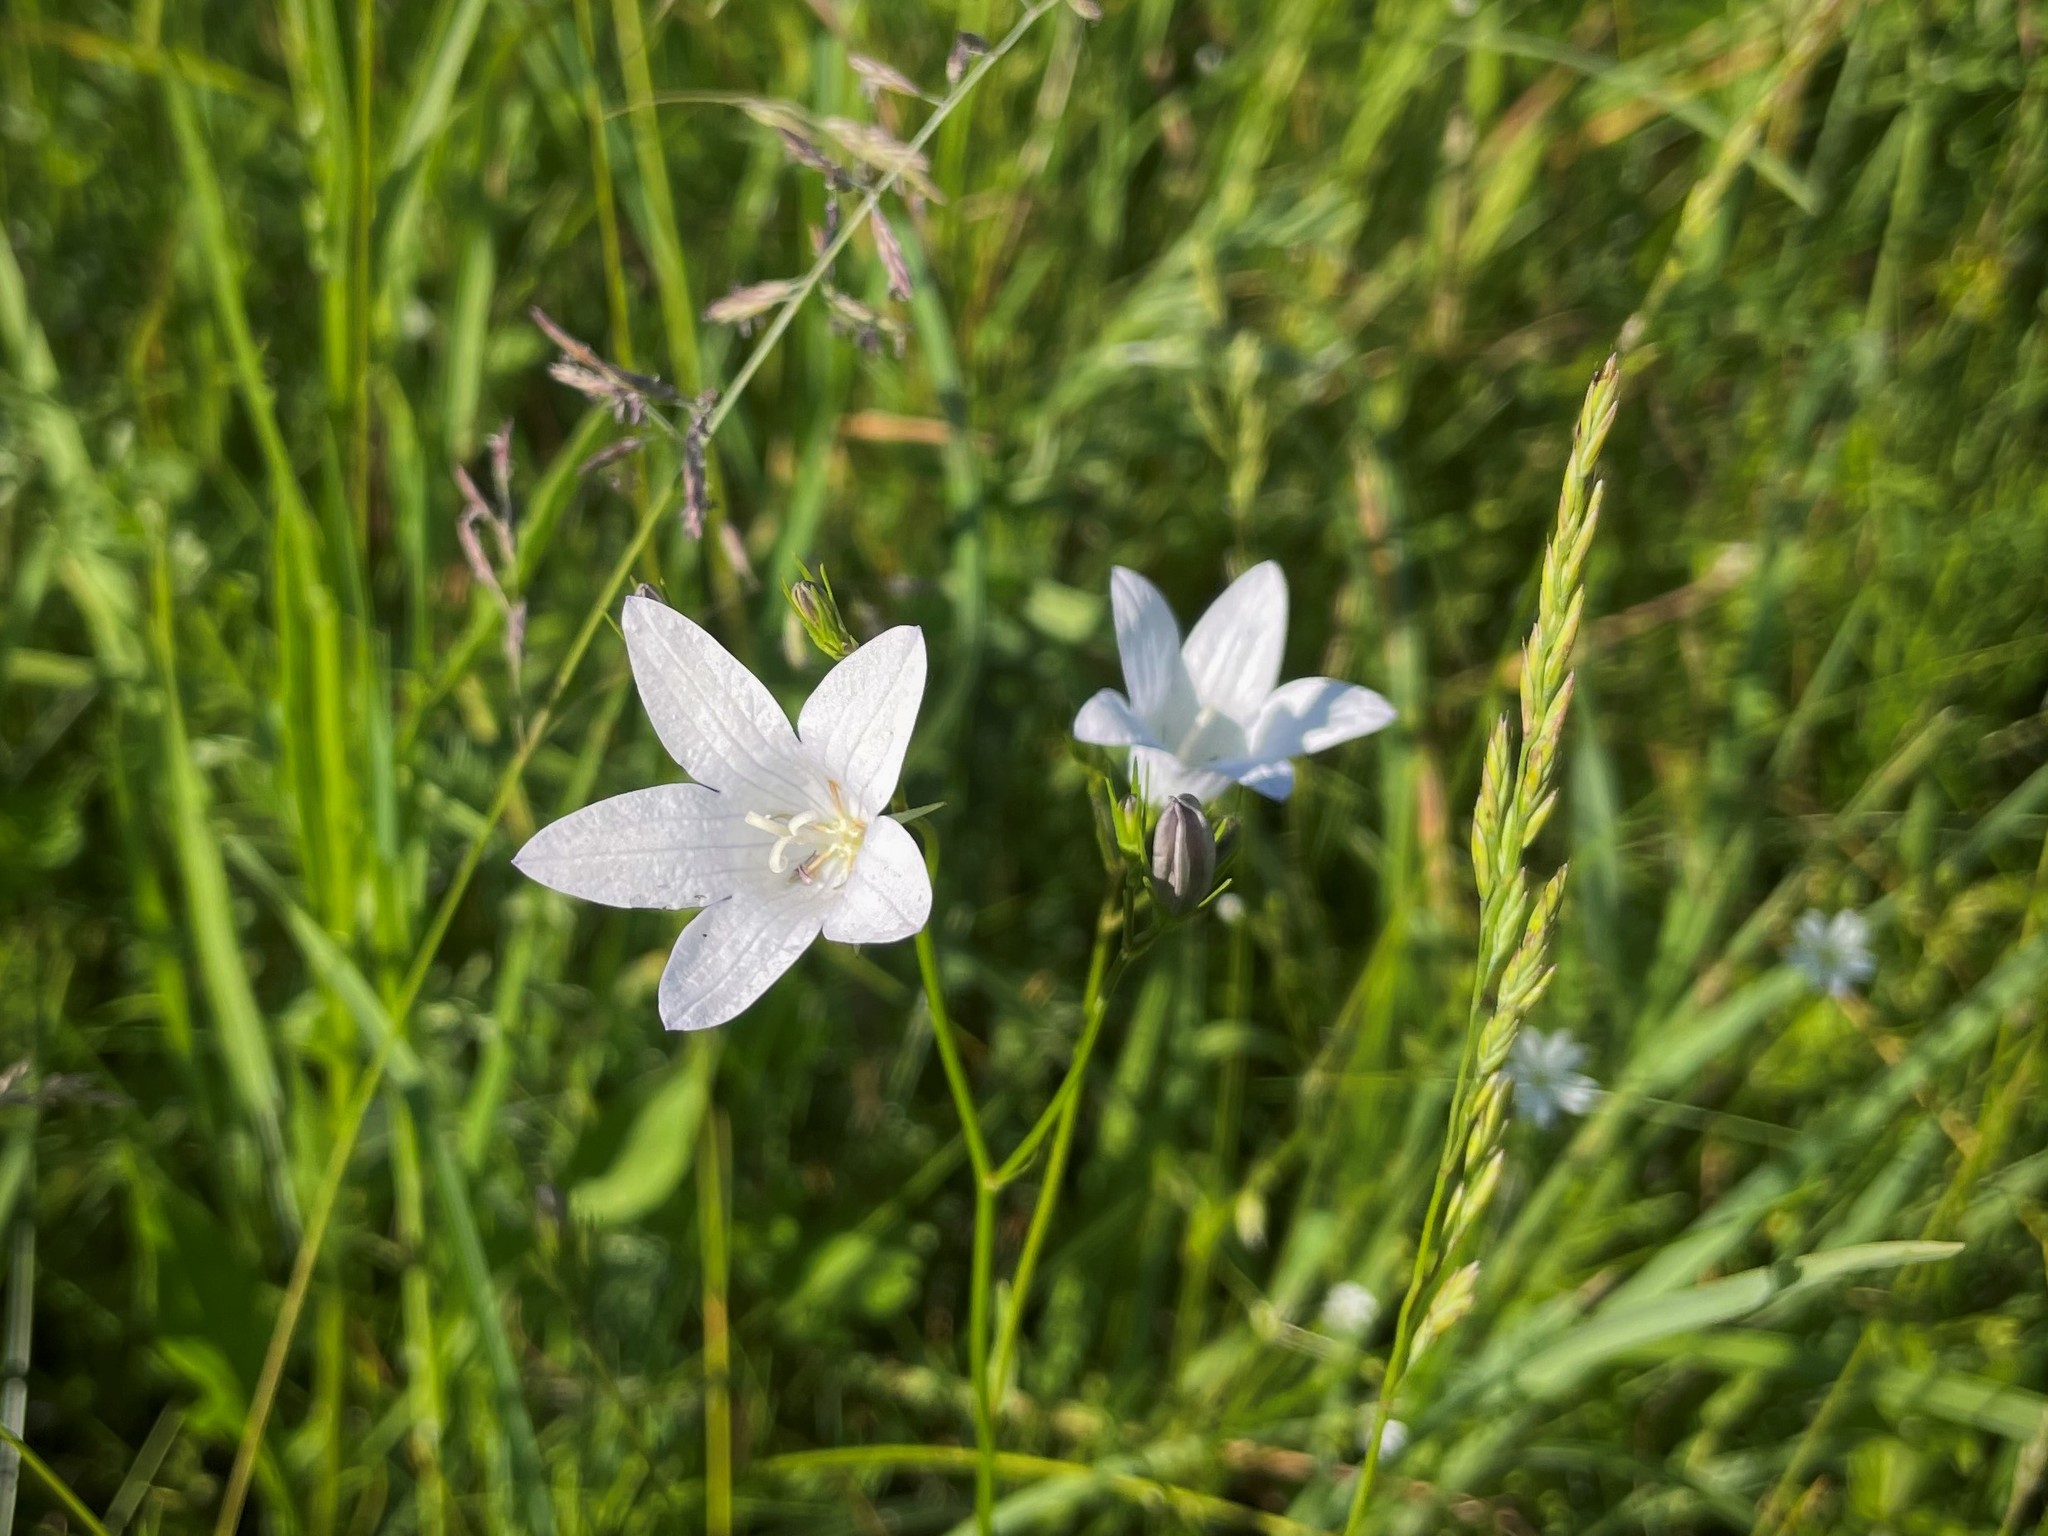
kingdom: Plantae
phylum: Tracheophyta
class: Magnoliopsida
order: Asterales
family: Campanulaceae
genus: Campanula
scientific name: Campanula patula
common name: Spreading bellflower
